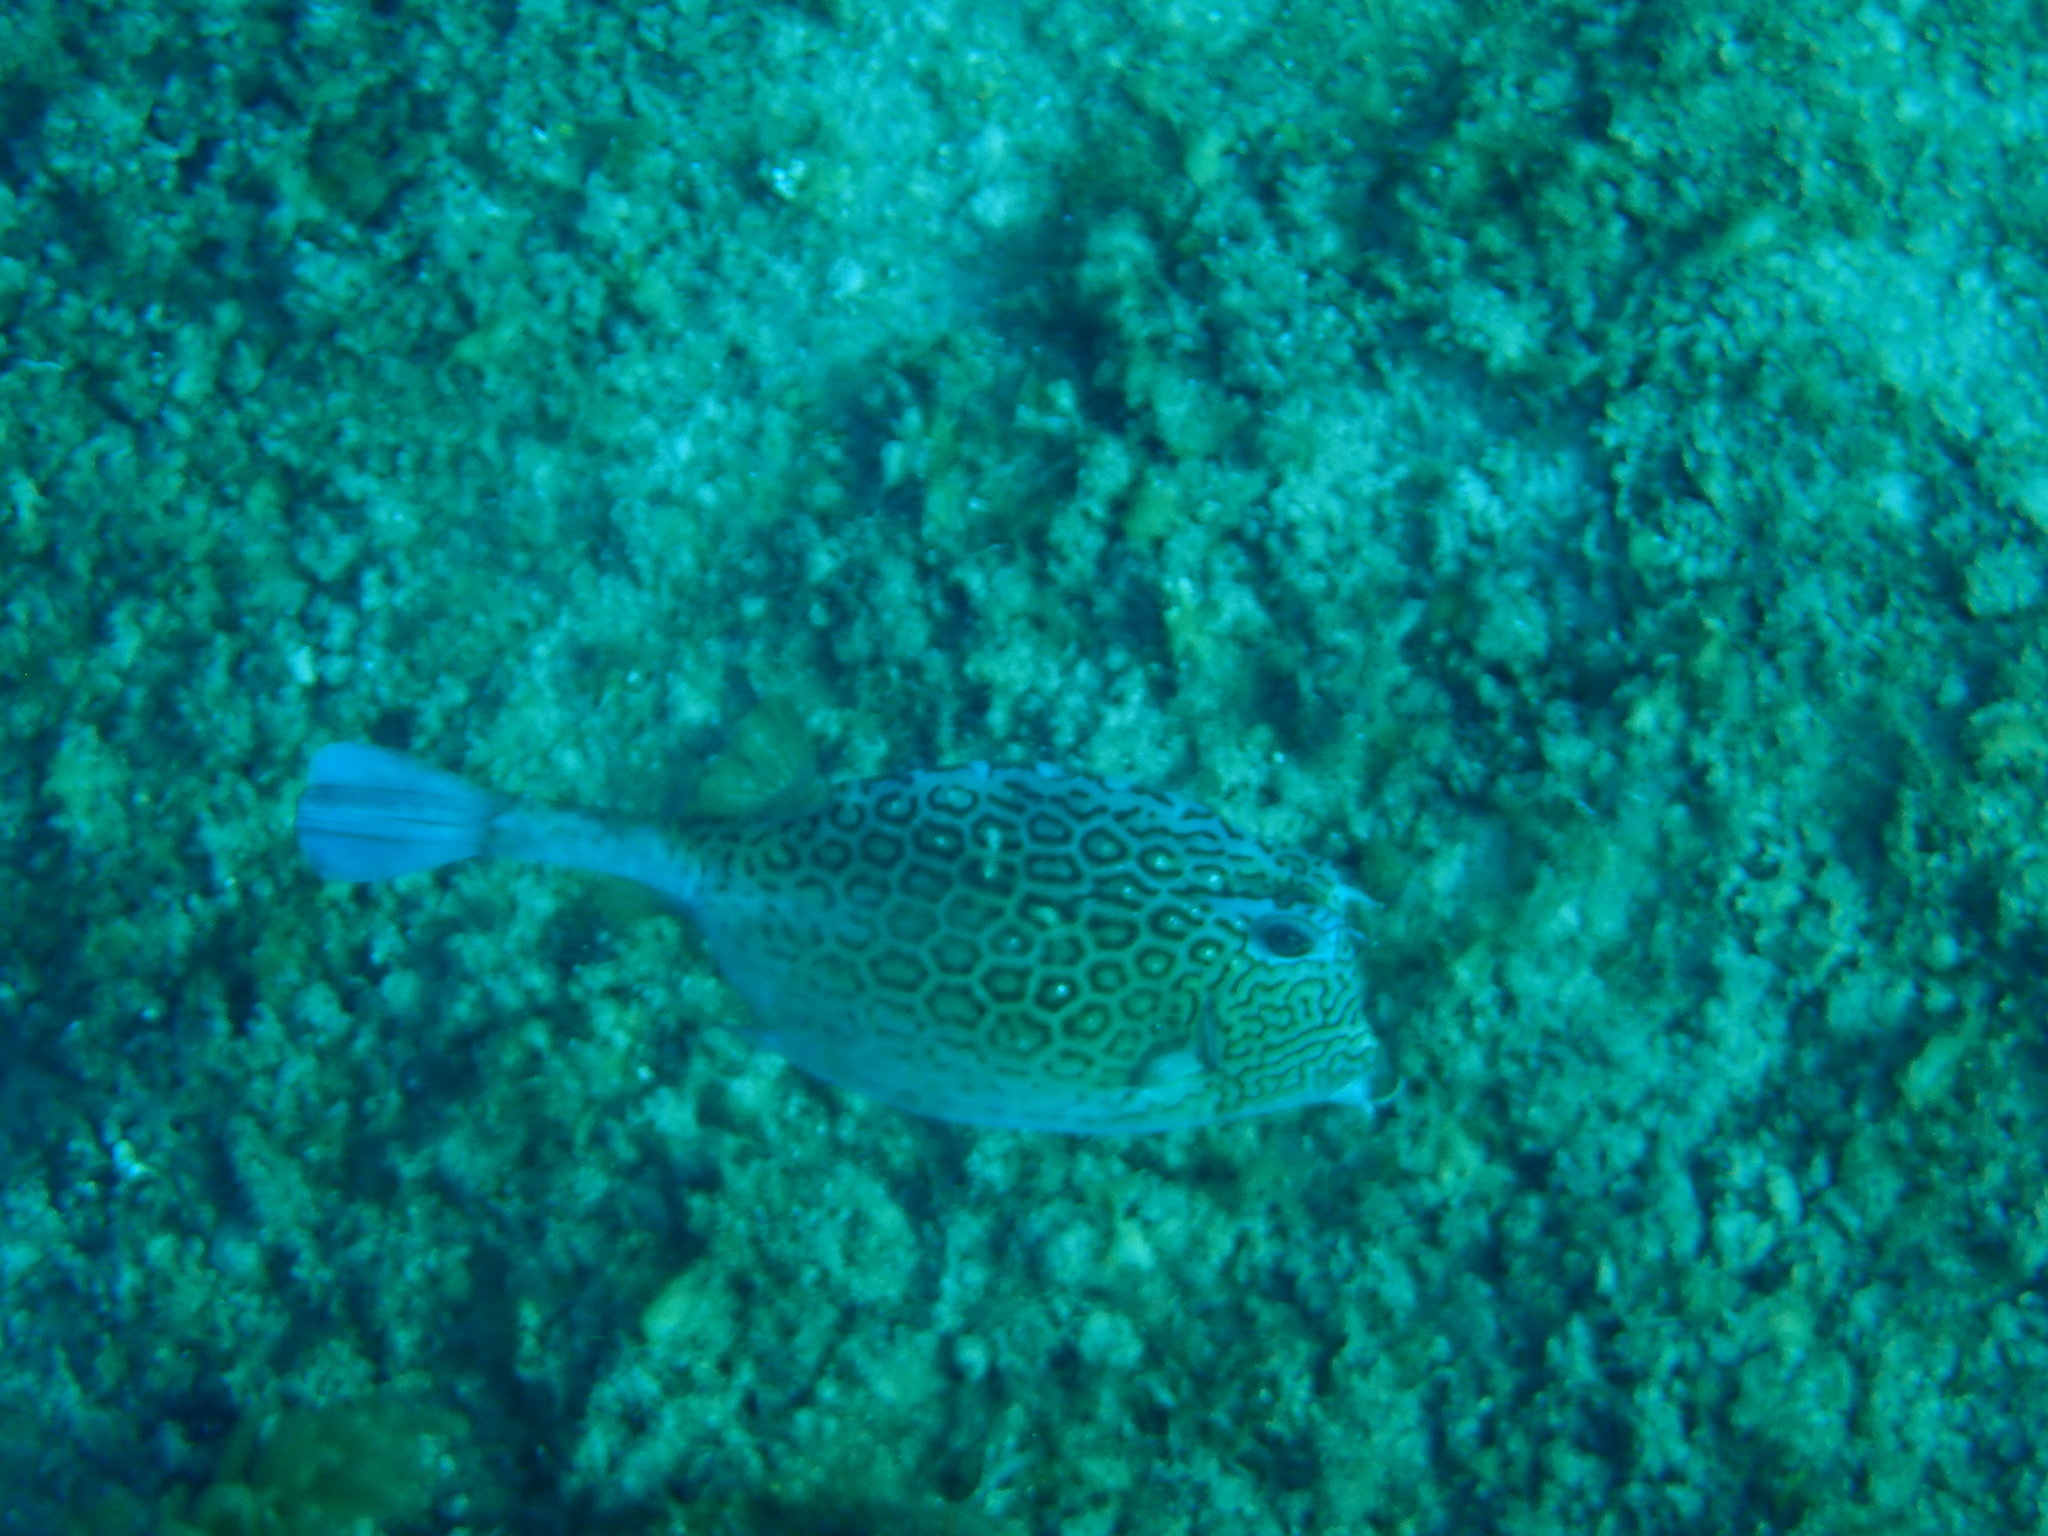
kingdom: Animalia
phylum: Chordata
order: Tetraodontiformes
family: Ostraciidae
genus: Acanthostracion
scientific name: Acanthostracion polygonius
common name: Honeycomb cowfish
